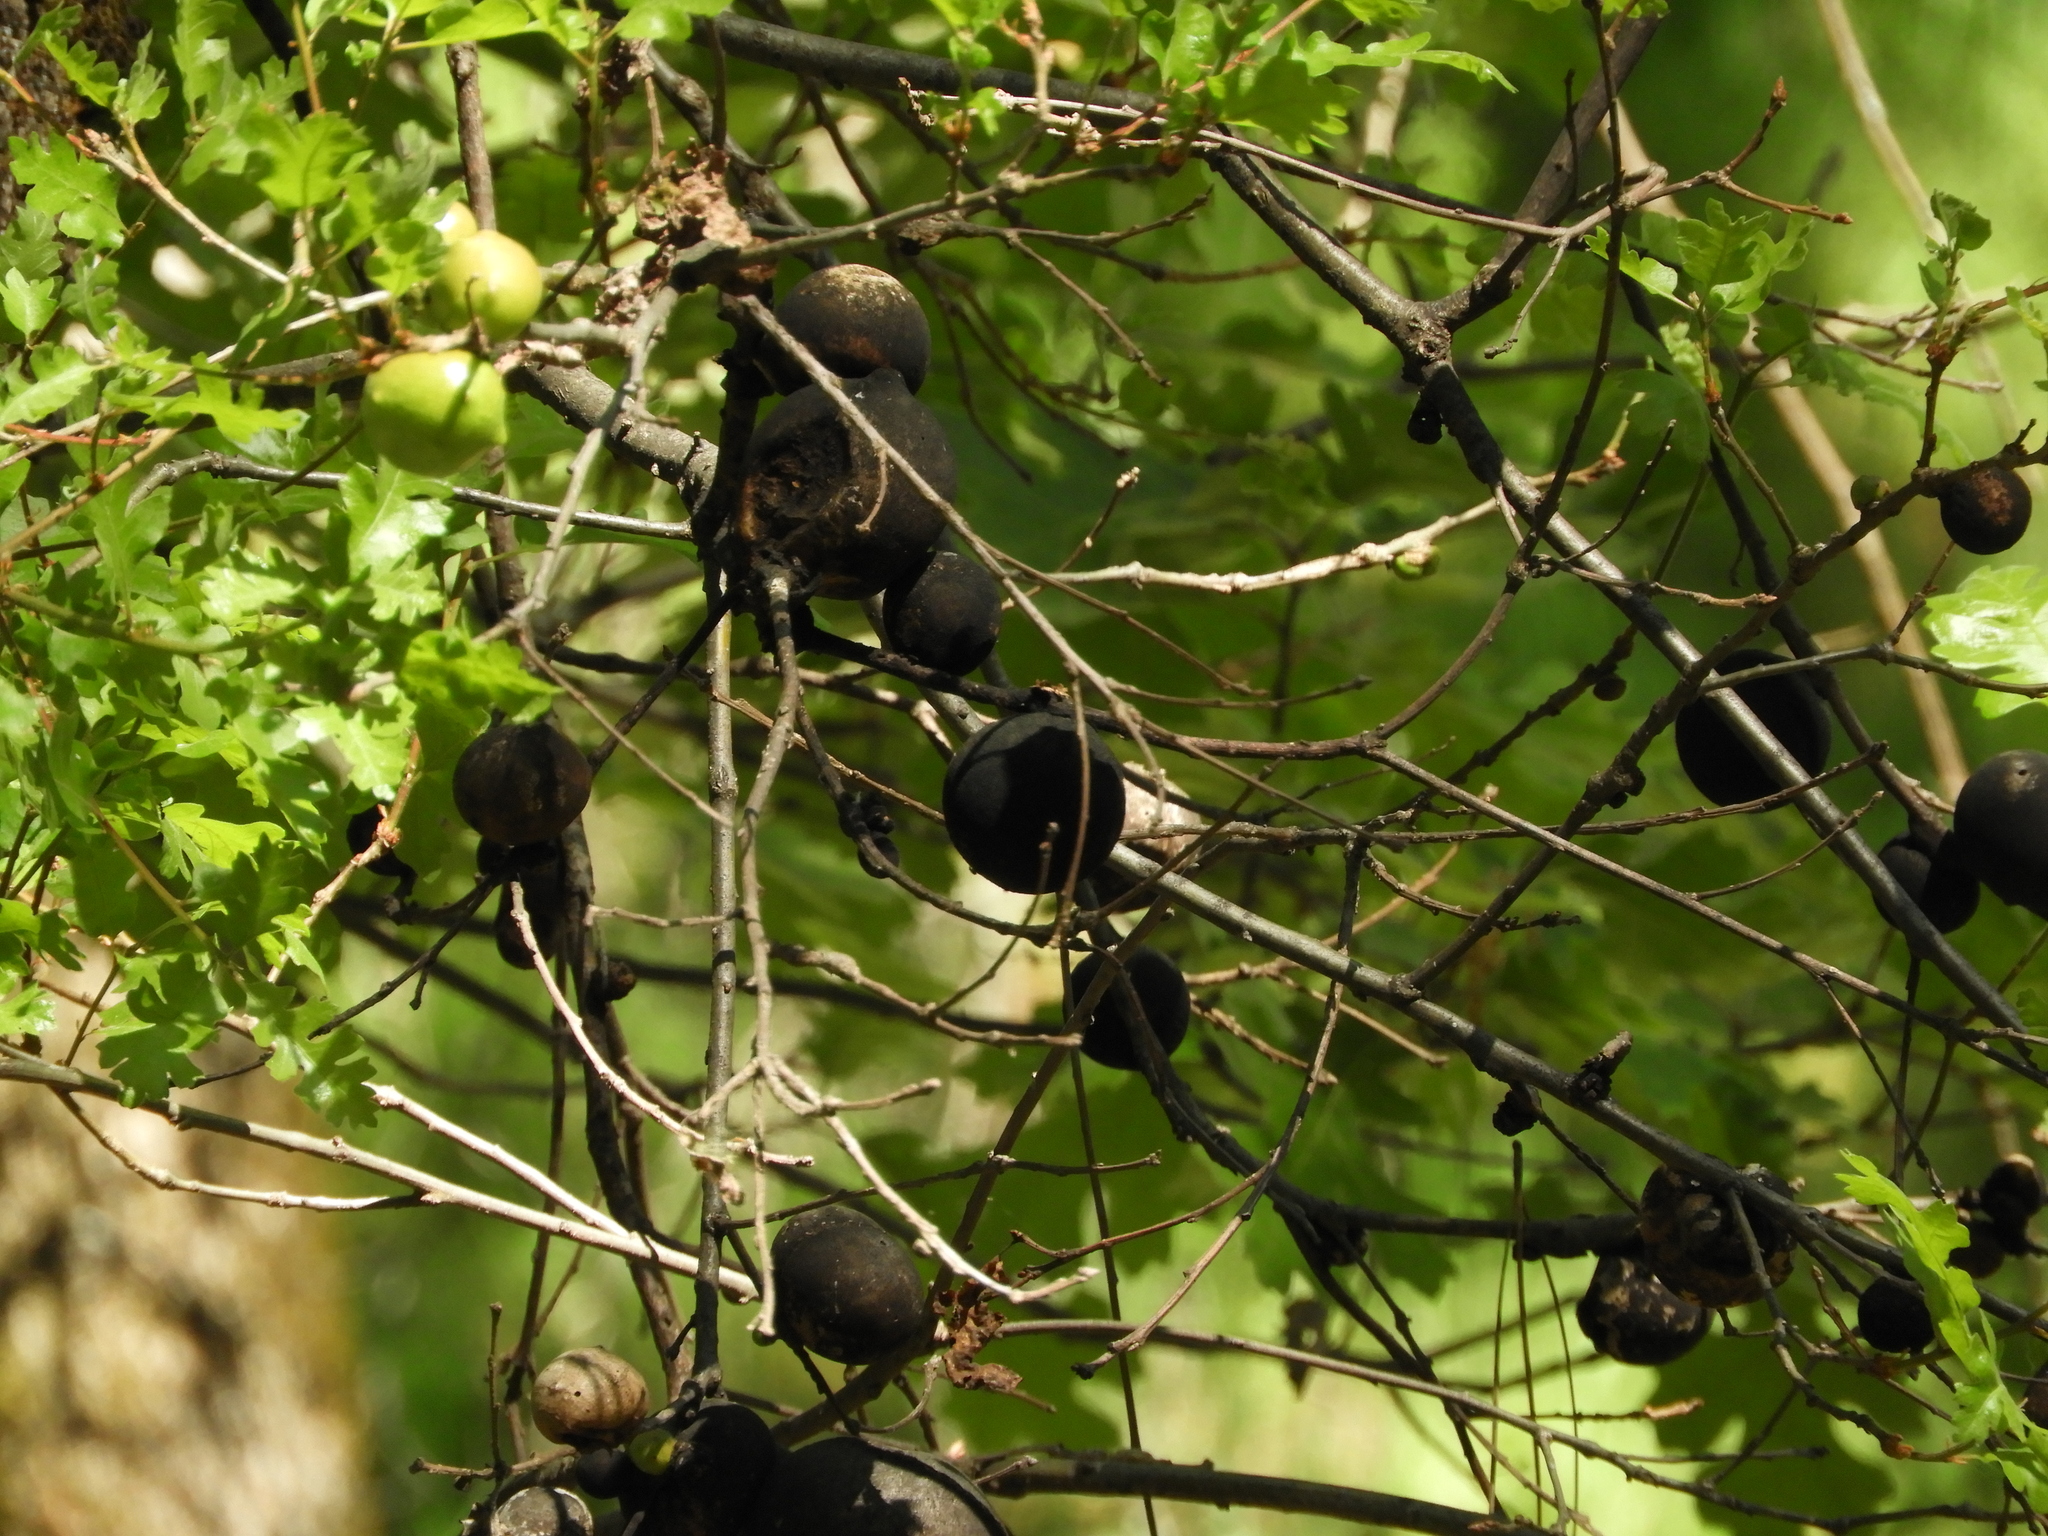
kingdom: Animalia
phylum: Arthropoda
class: Insecta
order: Hymenoptera
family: Cynipidae
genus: Andricus
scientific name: Andricus quercuscalifornicus
